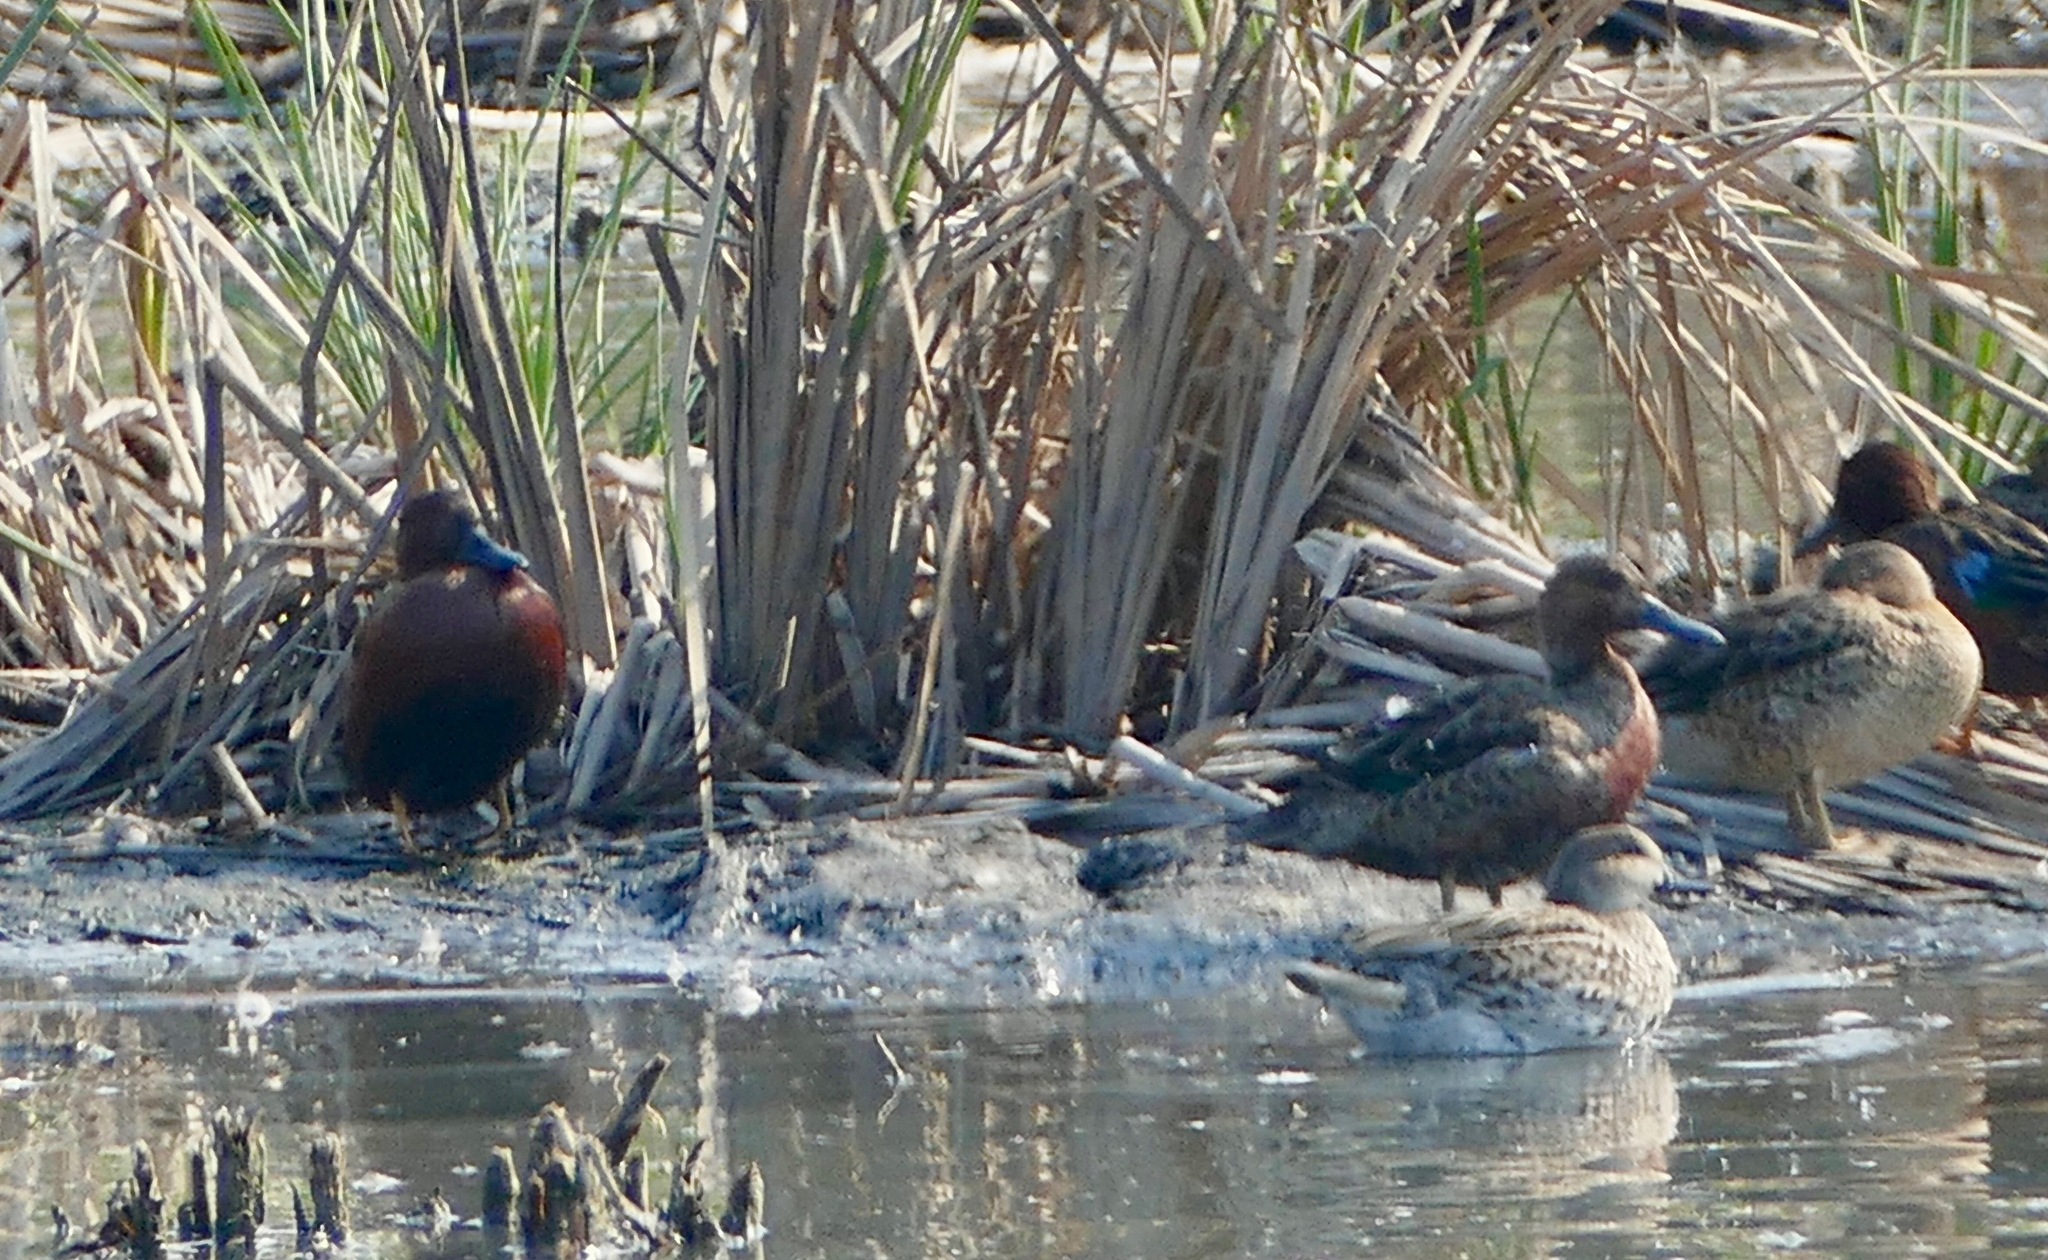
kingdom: Animalia
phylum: Chordata
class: Aves
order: Anseriformes
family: Anatidae
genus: Spatula
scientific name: Spatula cyanoptera
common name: Cinnamon teal
